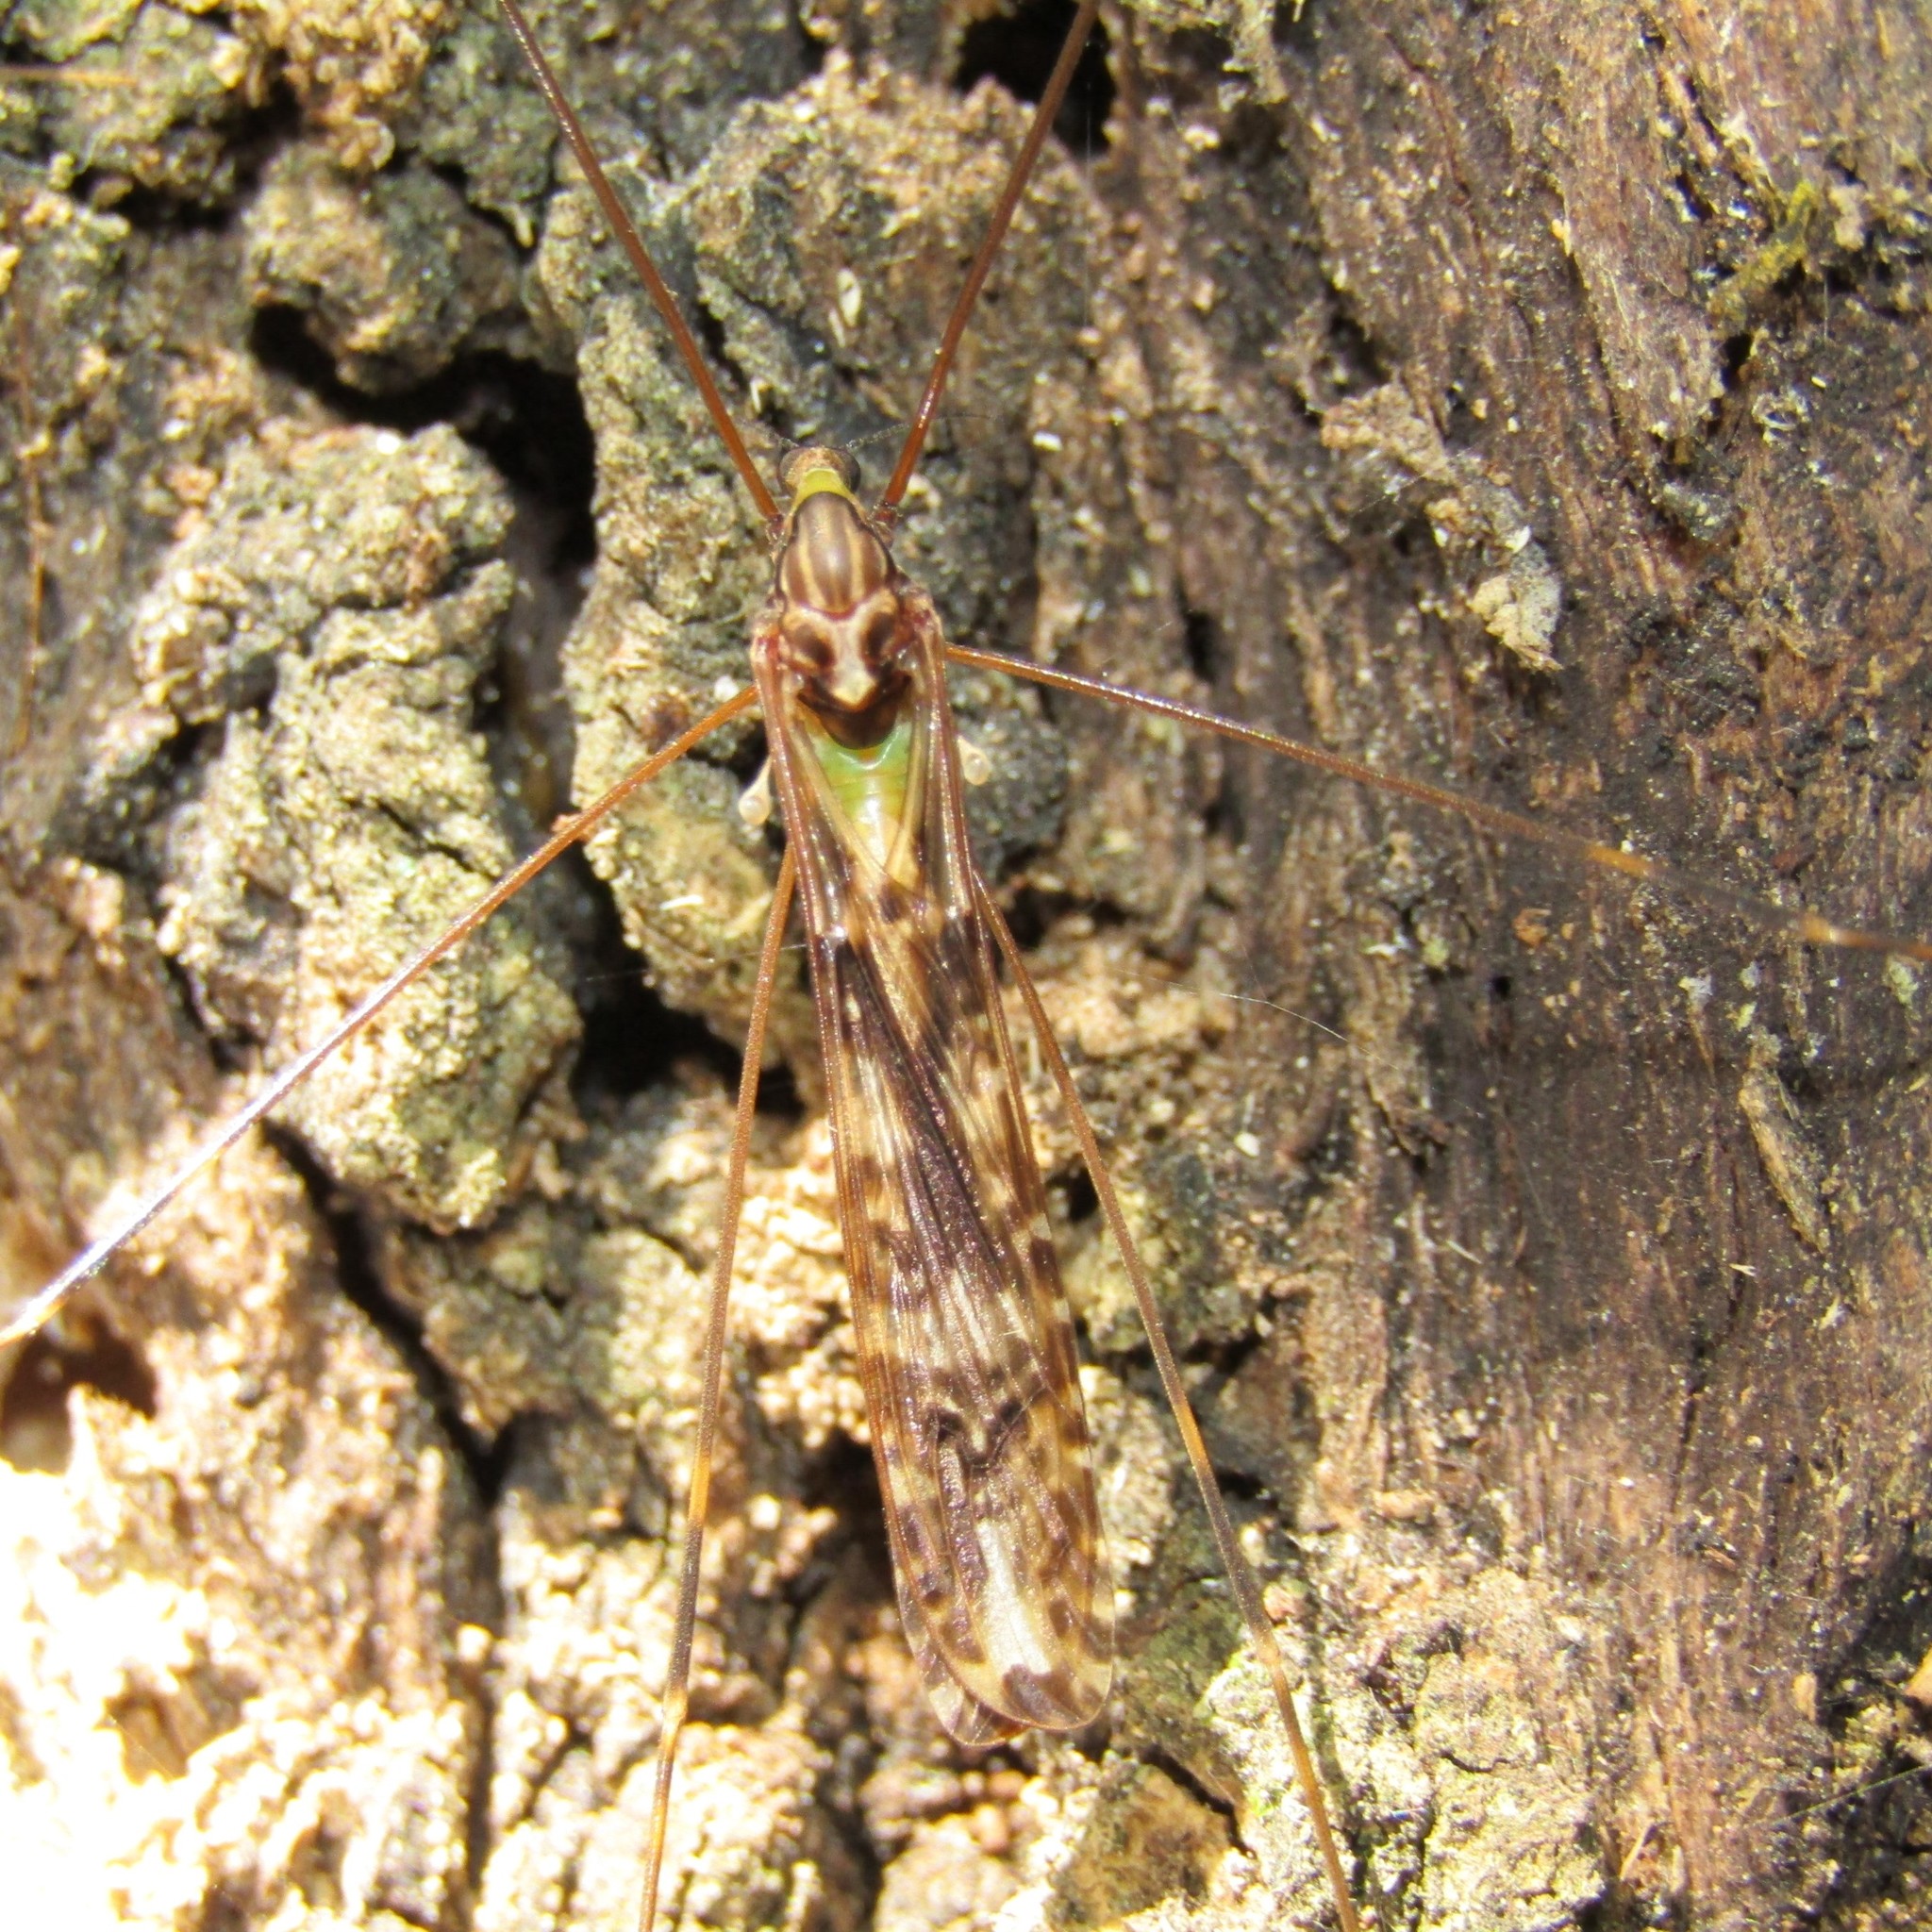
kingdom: Animalia
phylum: Arthropoda
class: Insecta
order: Diptera
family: Limoniidae
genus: Discobola
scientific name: Discobola dohrni
